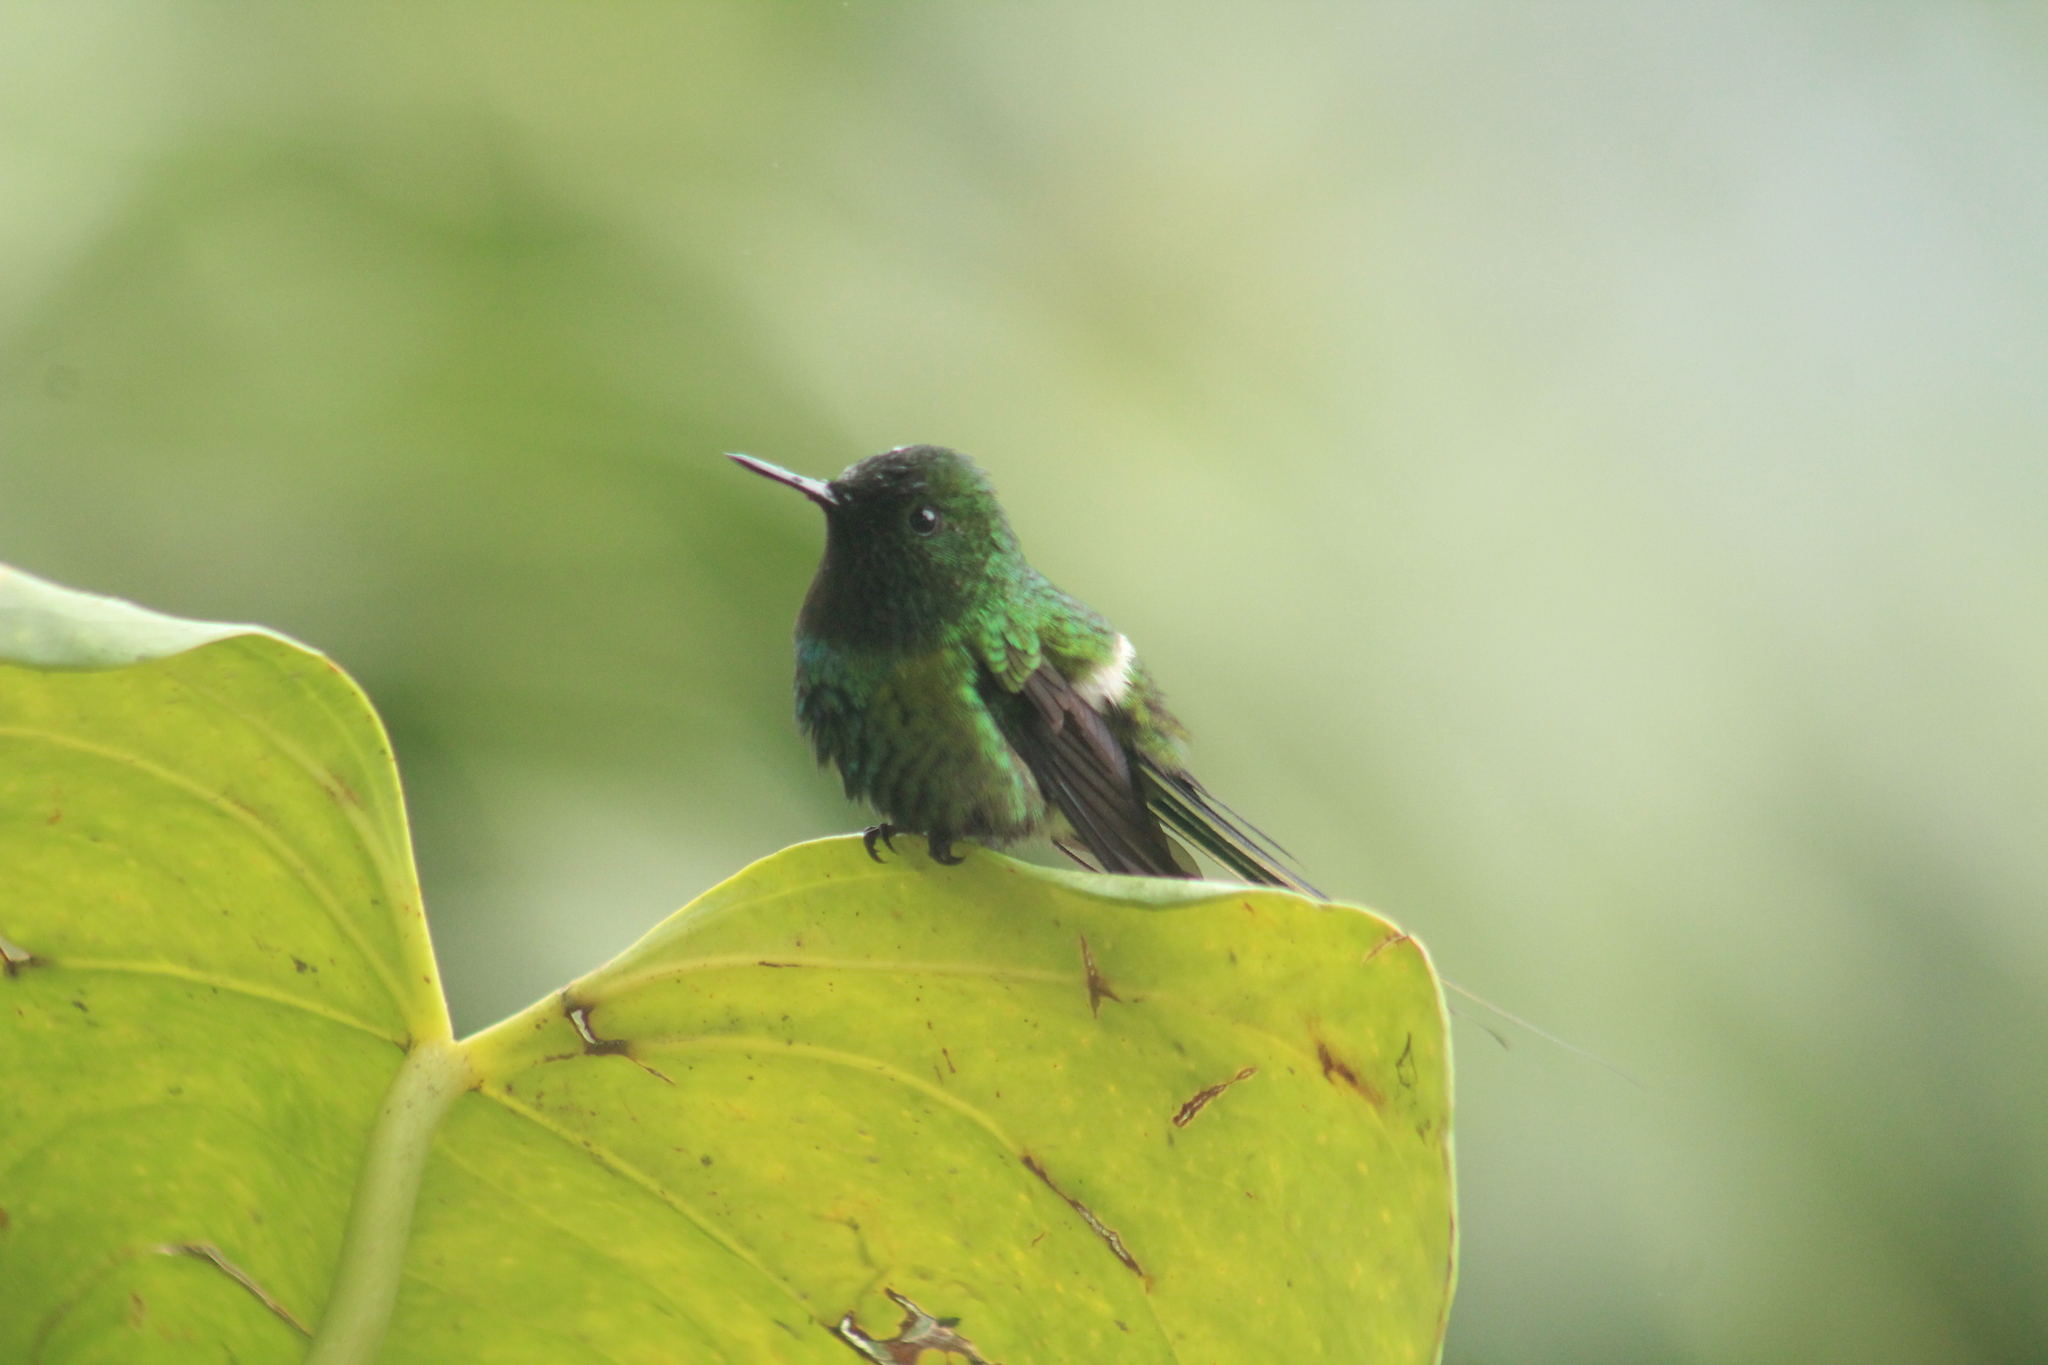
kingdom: Animalia
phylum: Chordata
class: Aves
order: Apodiformes
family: Trochilidae
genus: Discosura
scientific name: Discosura conversii
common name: Green thorntail
